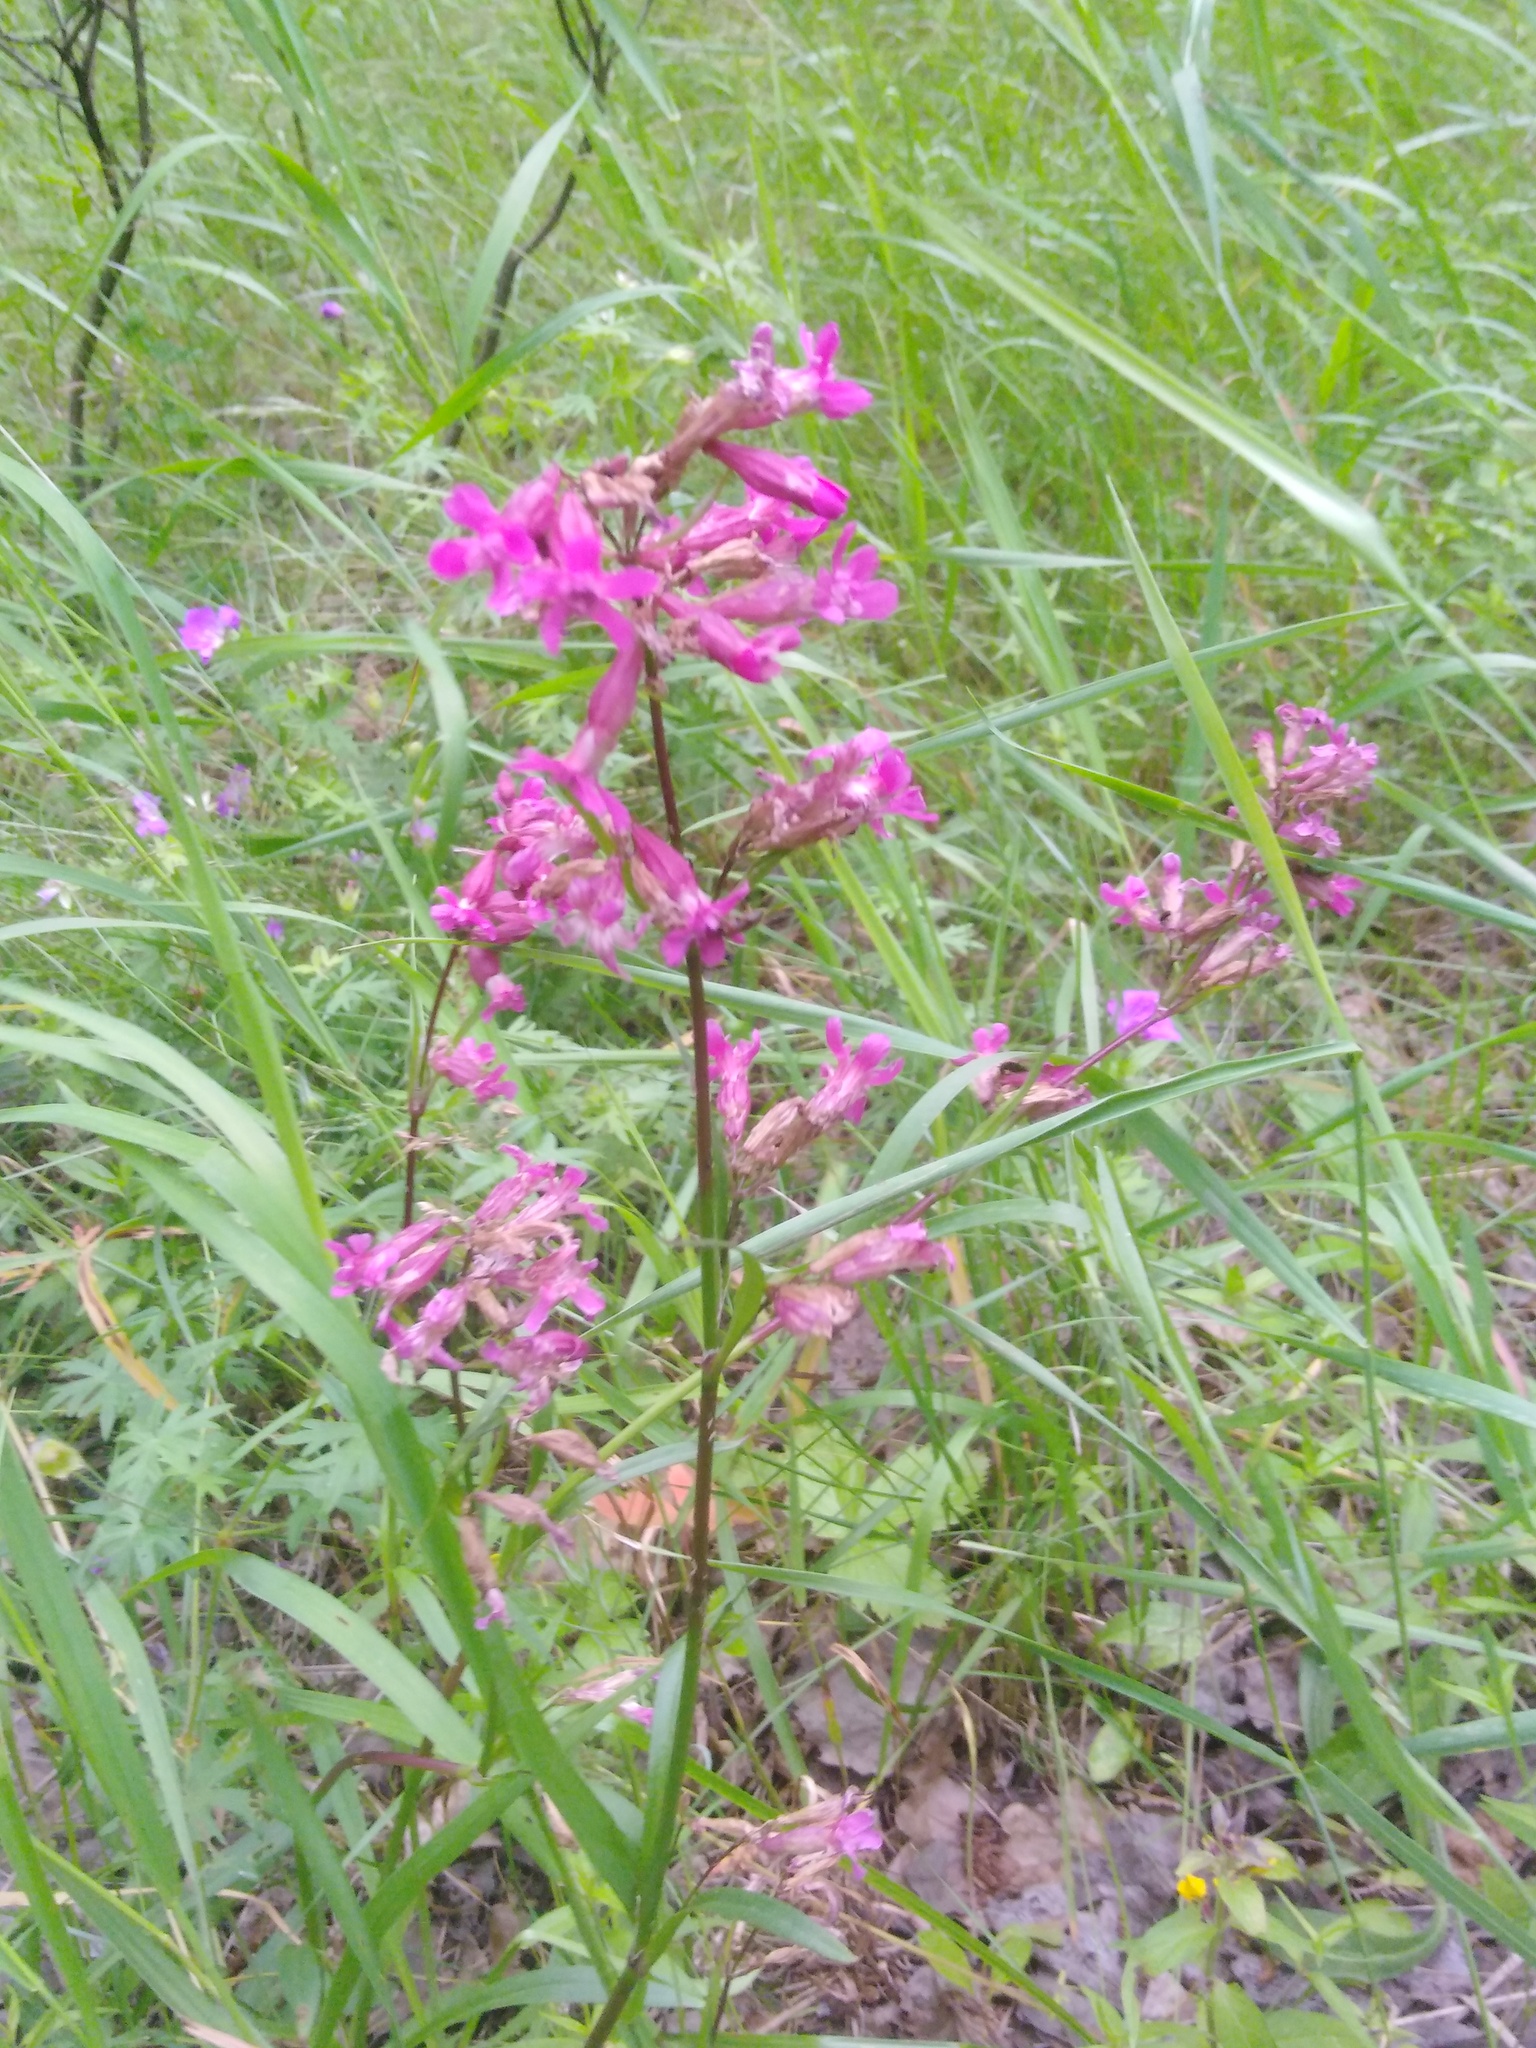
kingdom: Plantae
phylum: Tracheophyta
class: Magnoliopsida
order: Caryophyllales
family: Caryophyllaceae
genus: Viscaria
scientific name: Viscaria vulgaris
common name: Clammy campion
